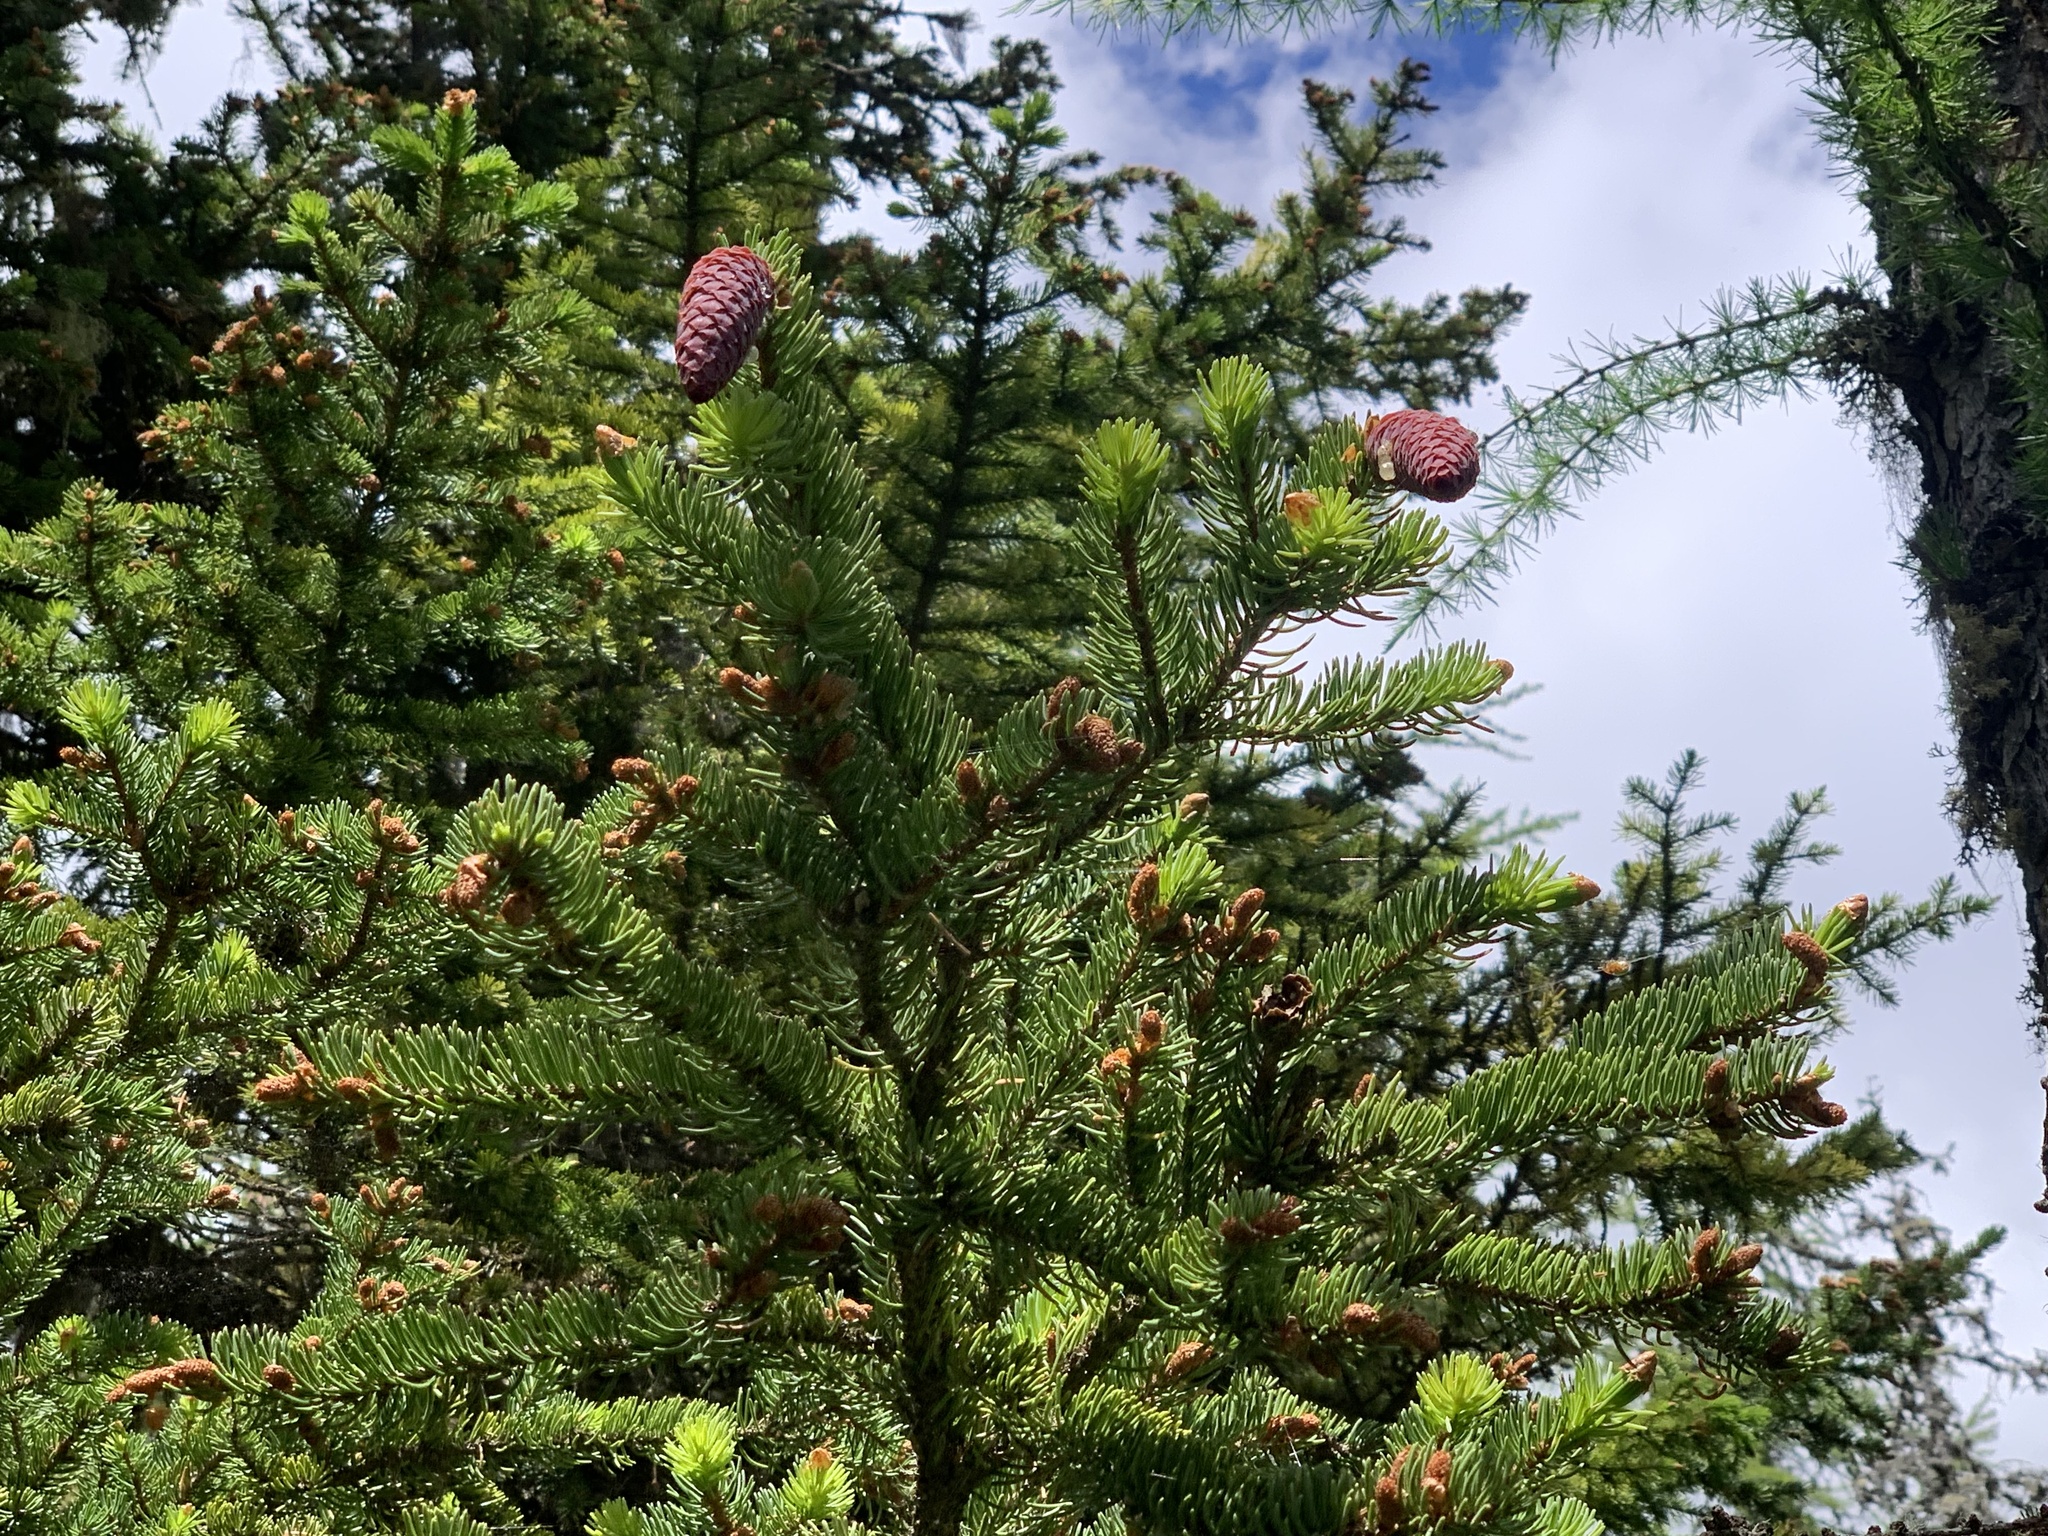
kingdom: Plantae
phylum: Tracheophyta
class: Pinopsida
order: Pinales
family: Pinaceae
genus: Picea
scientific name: Picea abies
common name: Norway spruce
